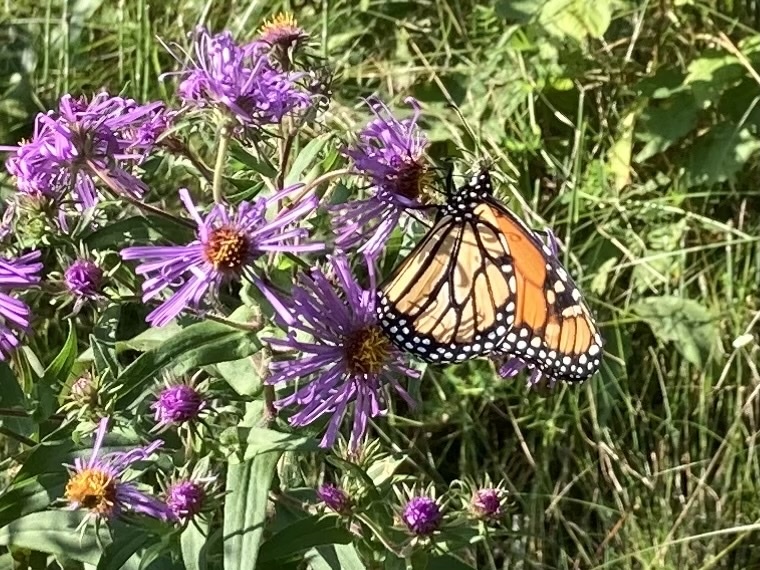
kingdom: Animalia
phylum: Arthropoda
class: Insecta
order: Lepidoptera
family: Nymphalidae
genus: Danaus
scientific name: Danaus plexippus
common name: Monarch
